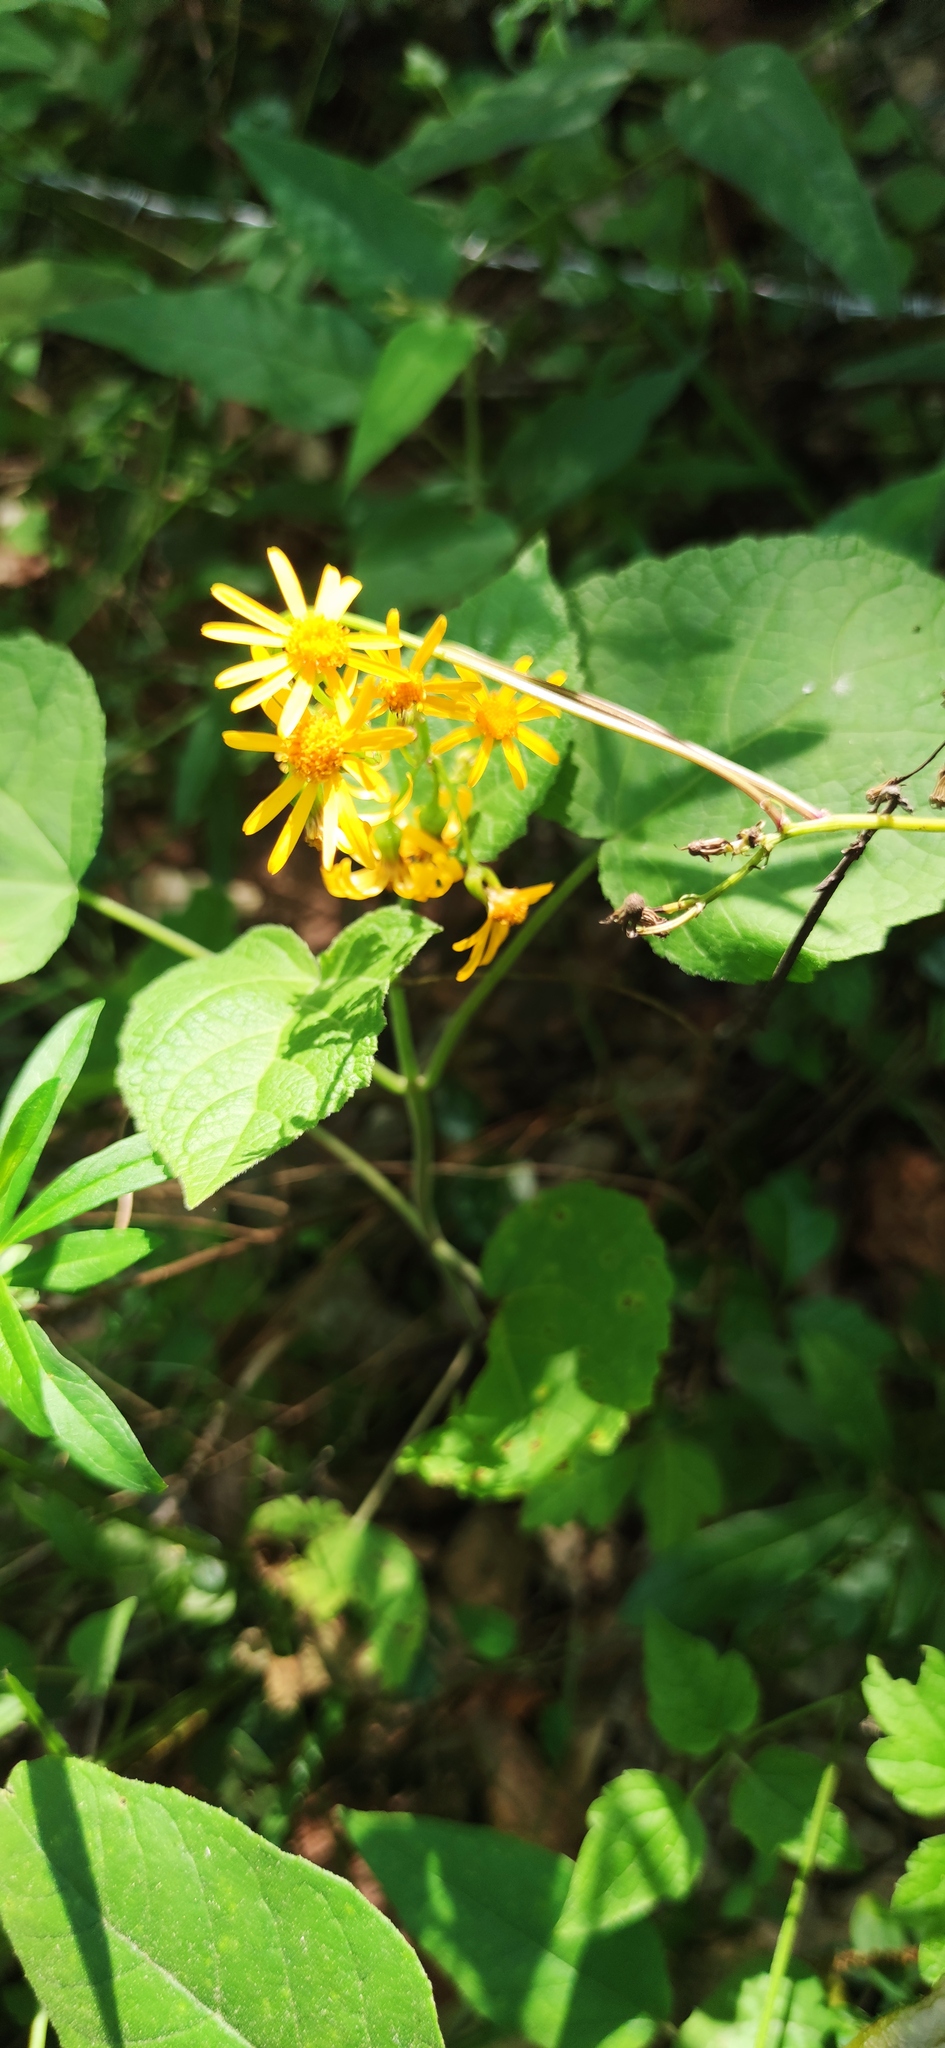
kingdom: Plantae
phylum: Tracheophyta
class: Magnoliopsida
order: Asterales
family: Asteraceae
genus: Packera
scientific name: Packera coahuilensis
